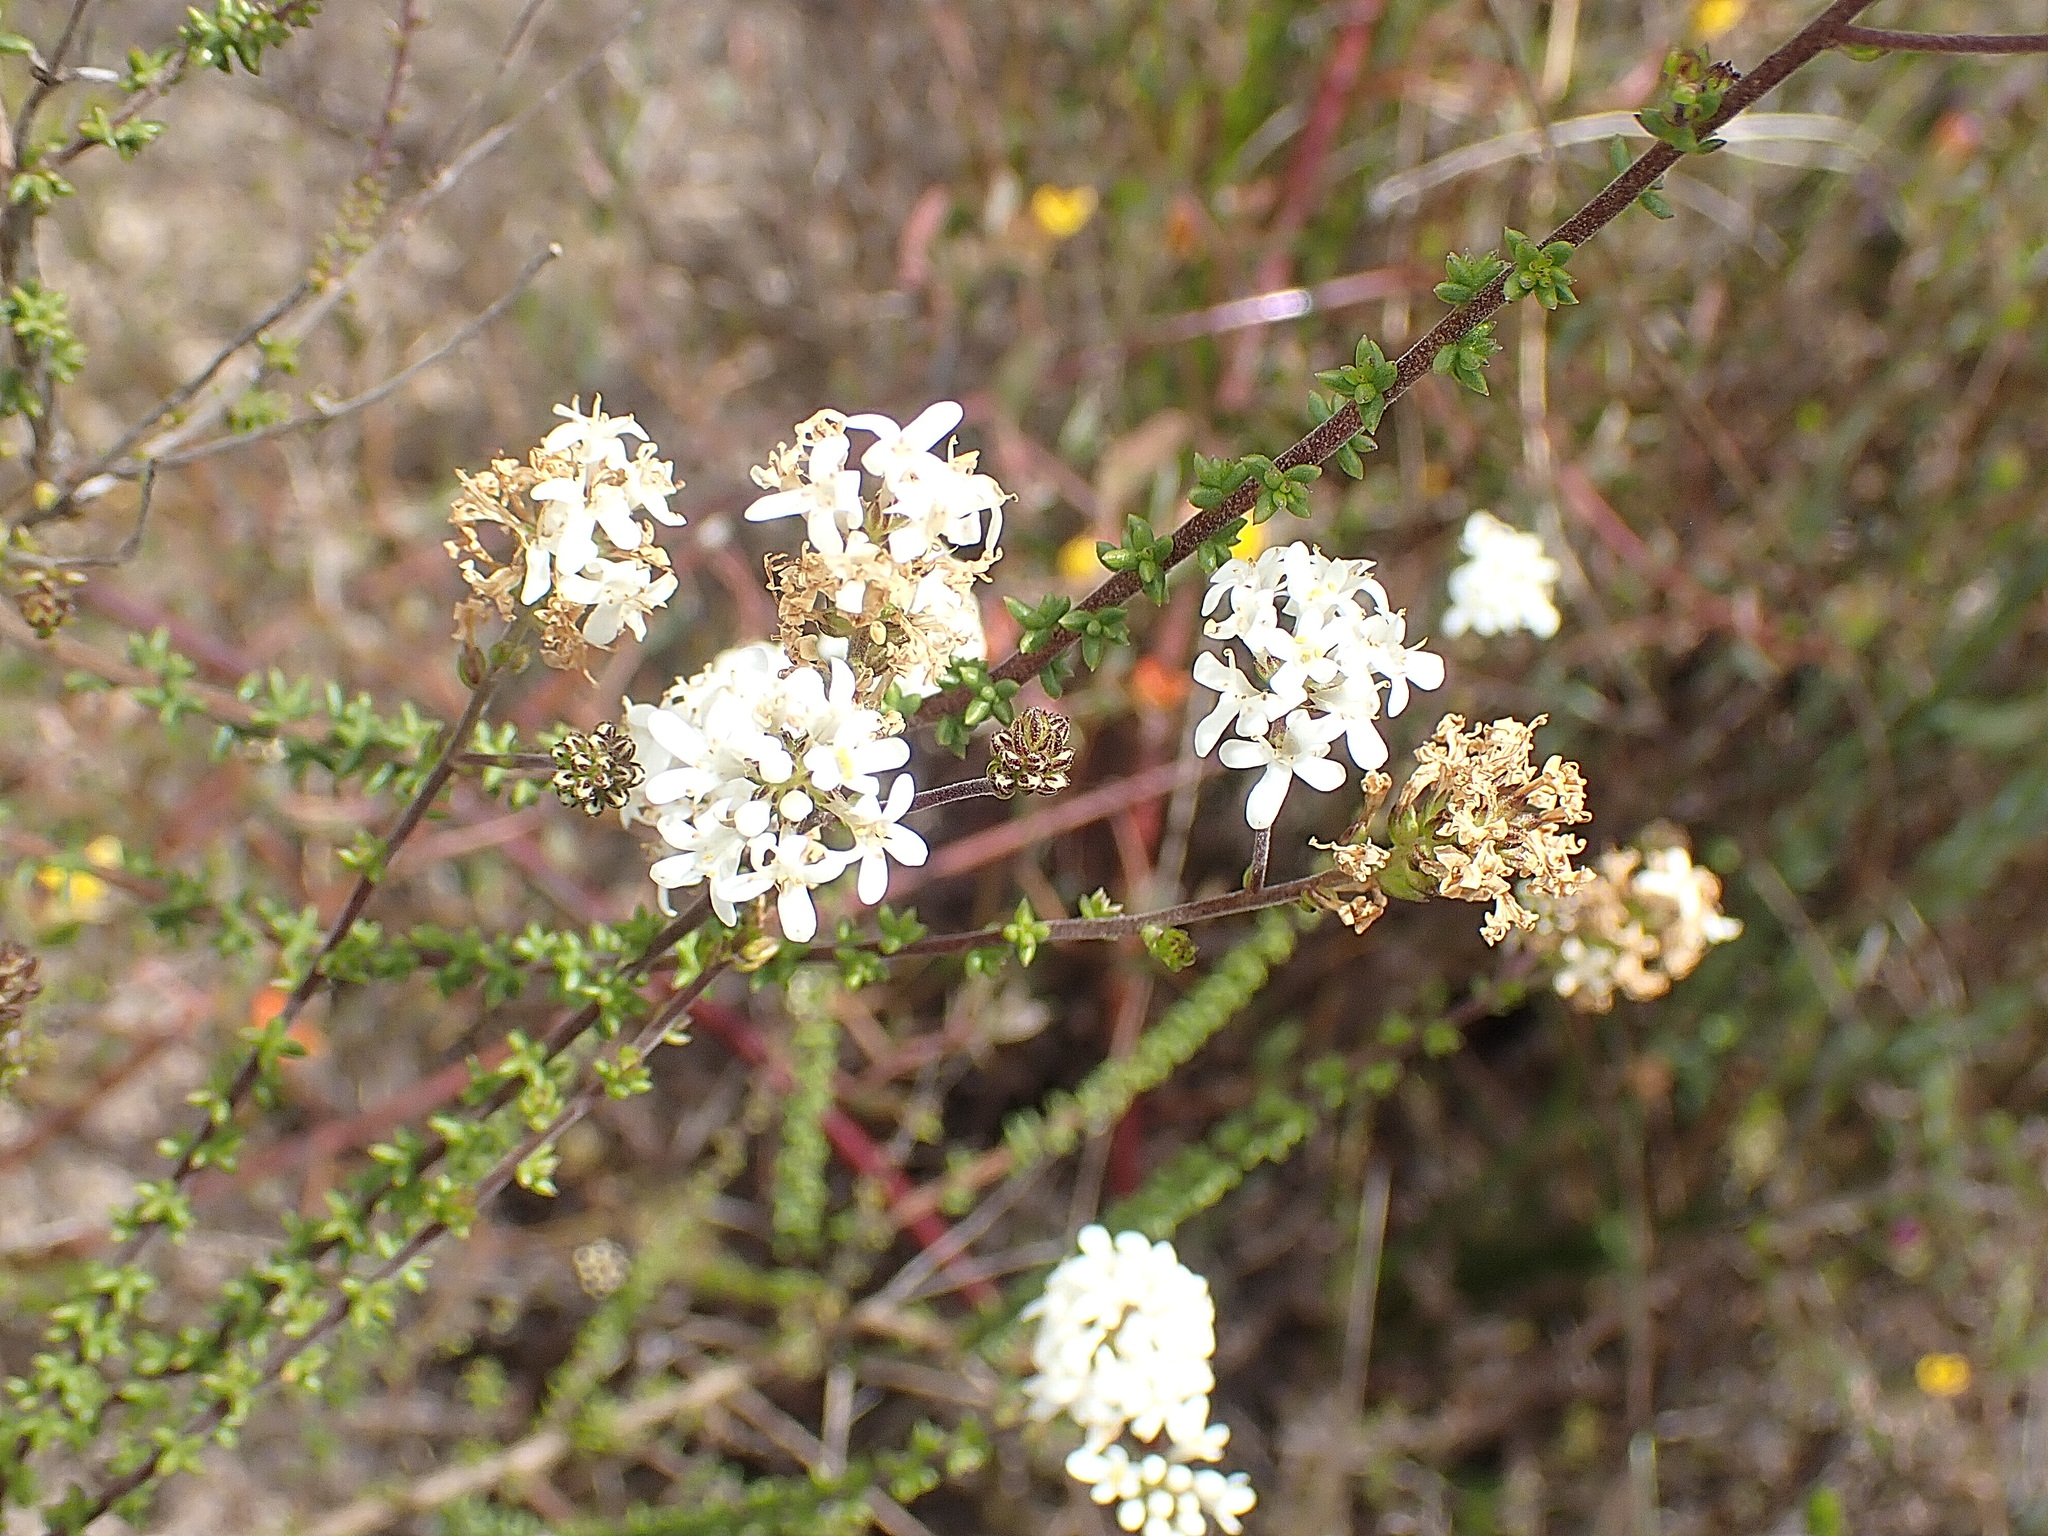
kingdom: Plantae
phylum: Tracheophyta
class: Magnoliopsida
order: Lamiales
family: Scrophulariaceae
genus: Selago
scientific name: Selago brevifolia
